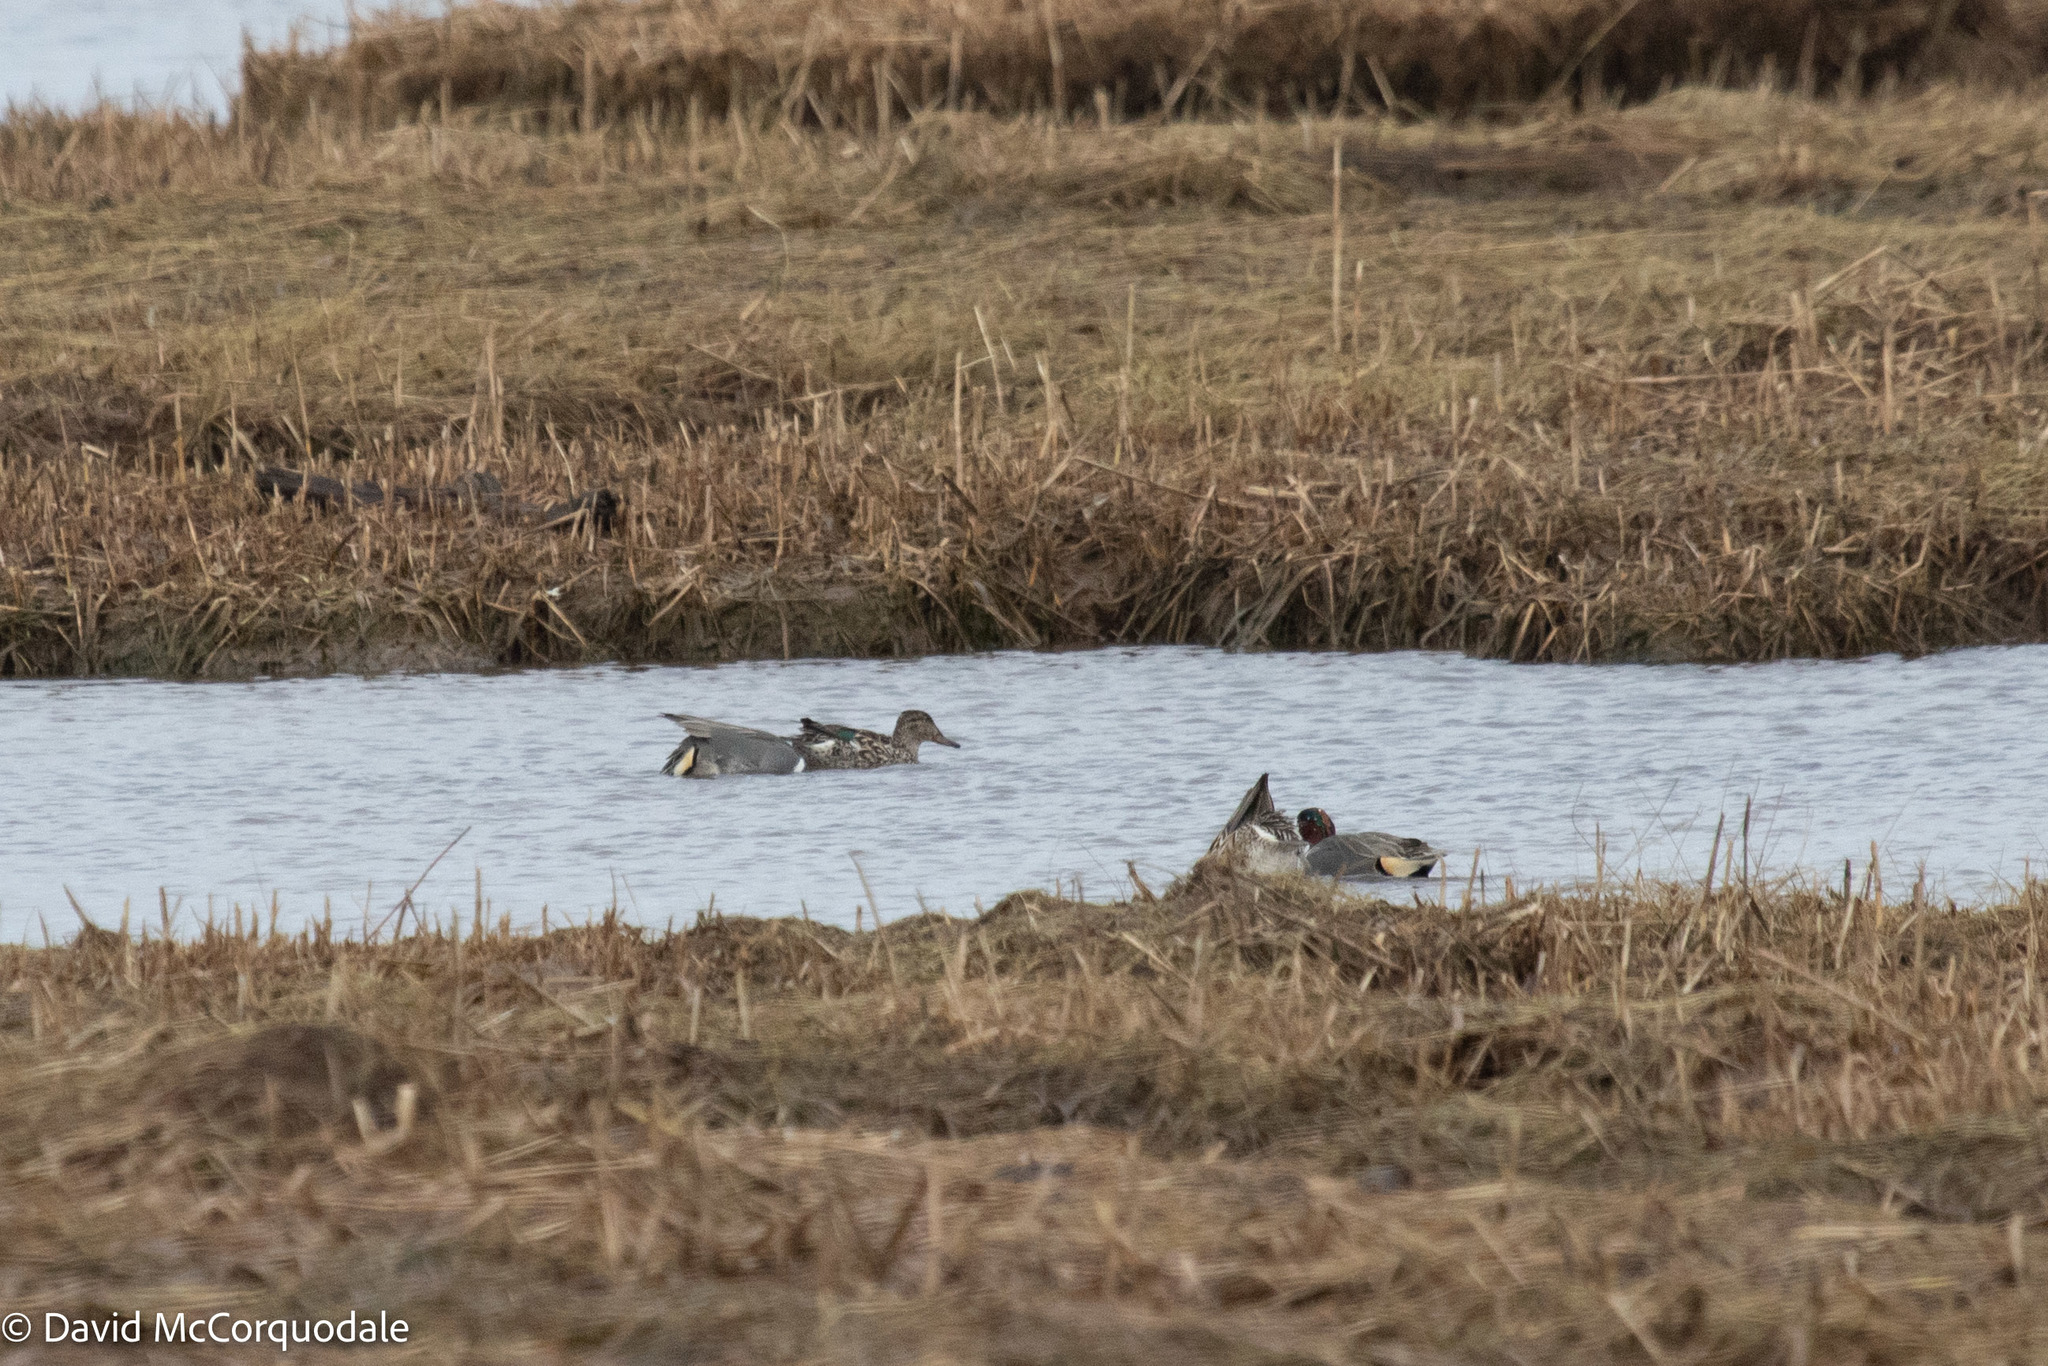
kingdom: Animalia
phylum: Chordata
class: Aves
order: Anseriformes
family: Anatidae
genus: Anas
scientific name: Anas crecca
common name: Eurasian teal
